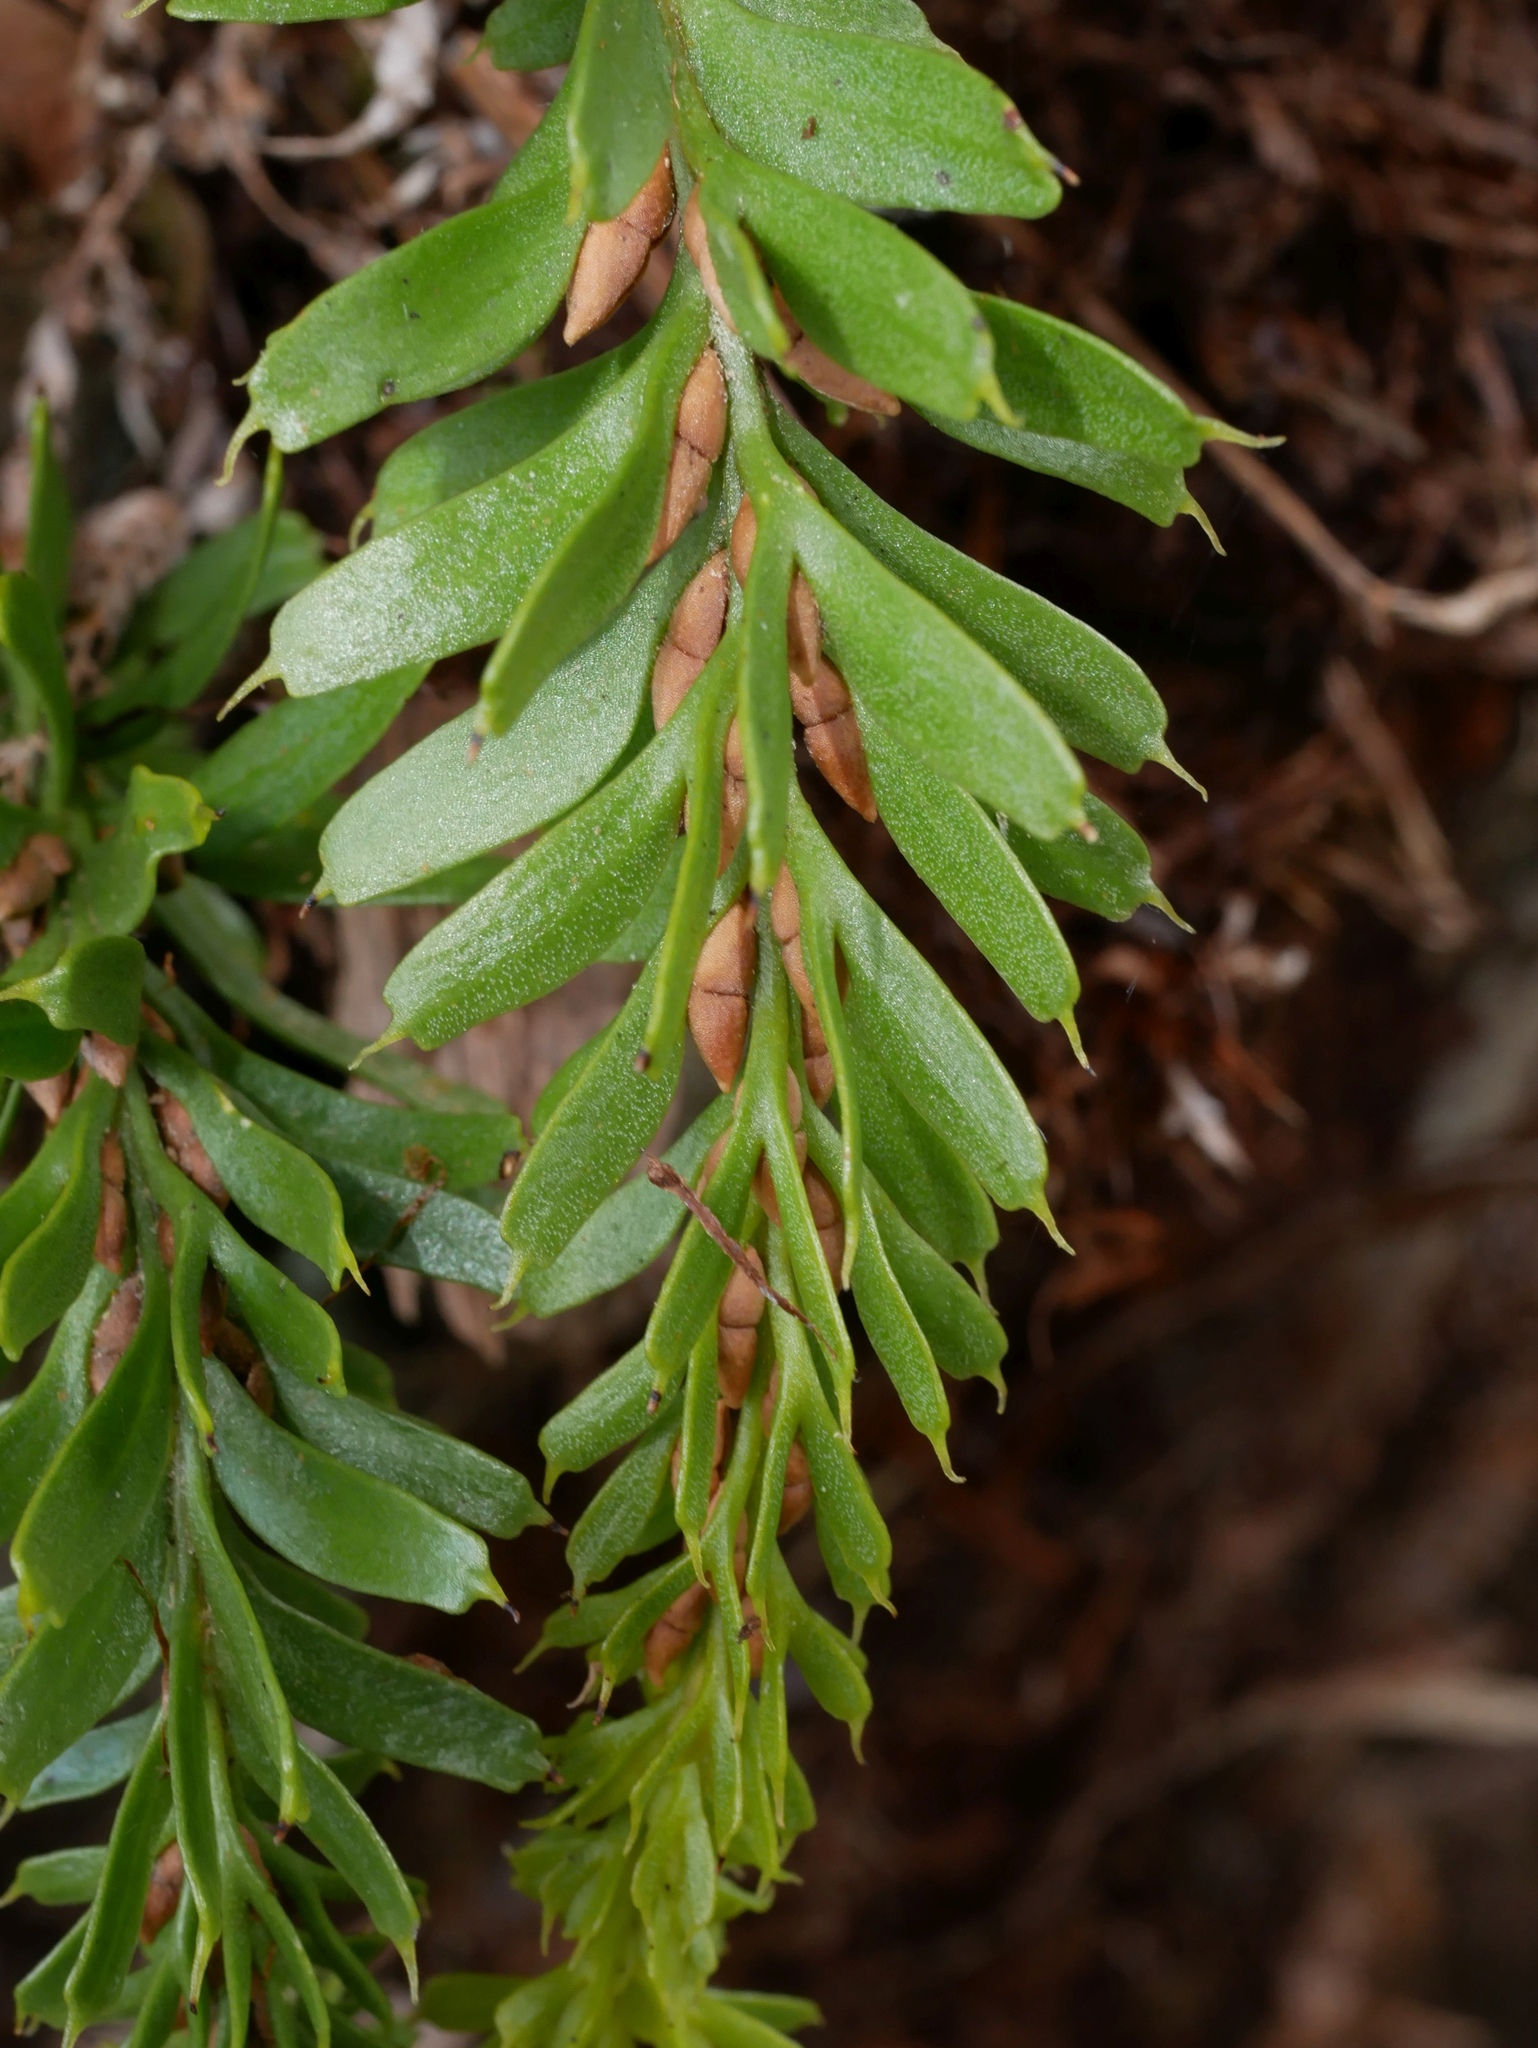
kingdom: Plantae
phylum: Tracheophyta
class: Polypodiopsida
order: Psilotales
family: Psilotaceae
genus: Tmesipteris
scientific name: Tmesipteris tannensis
